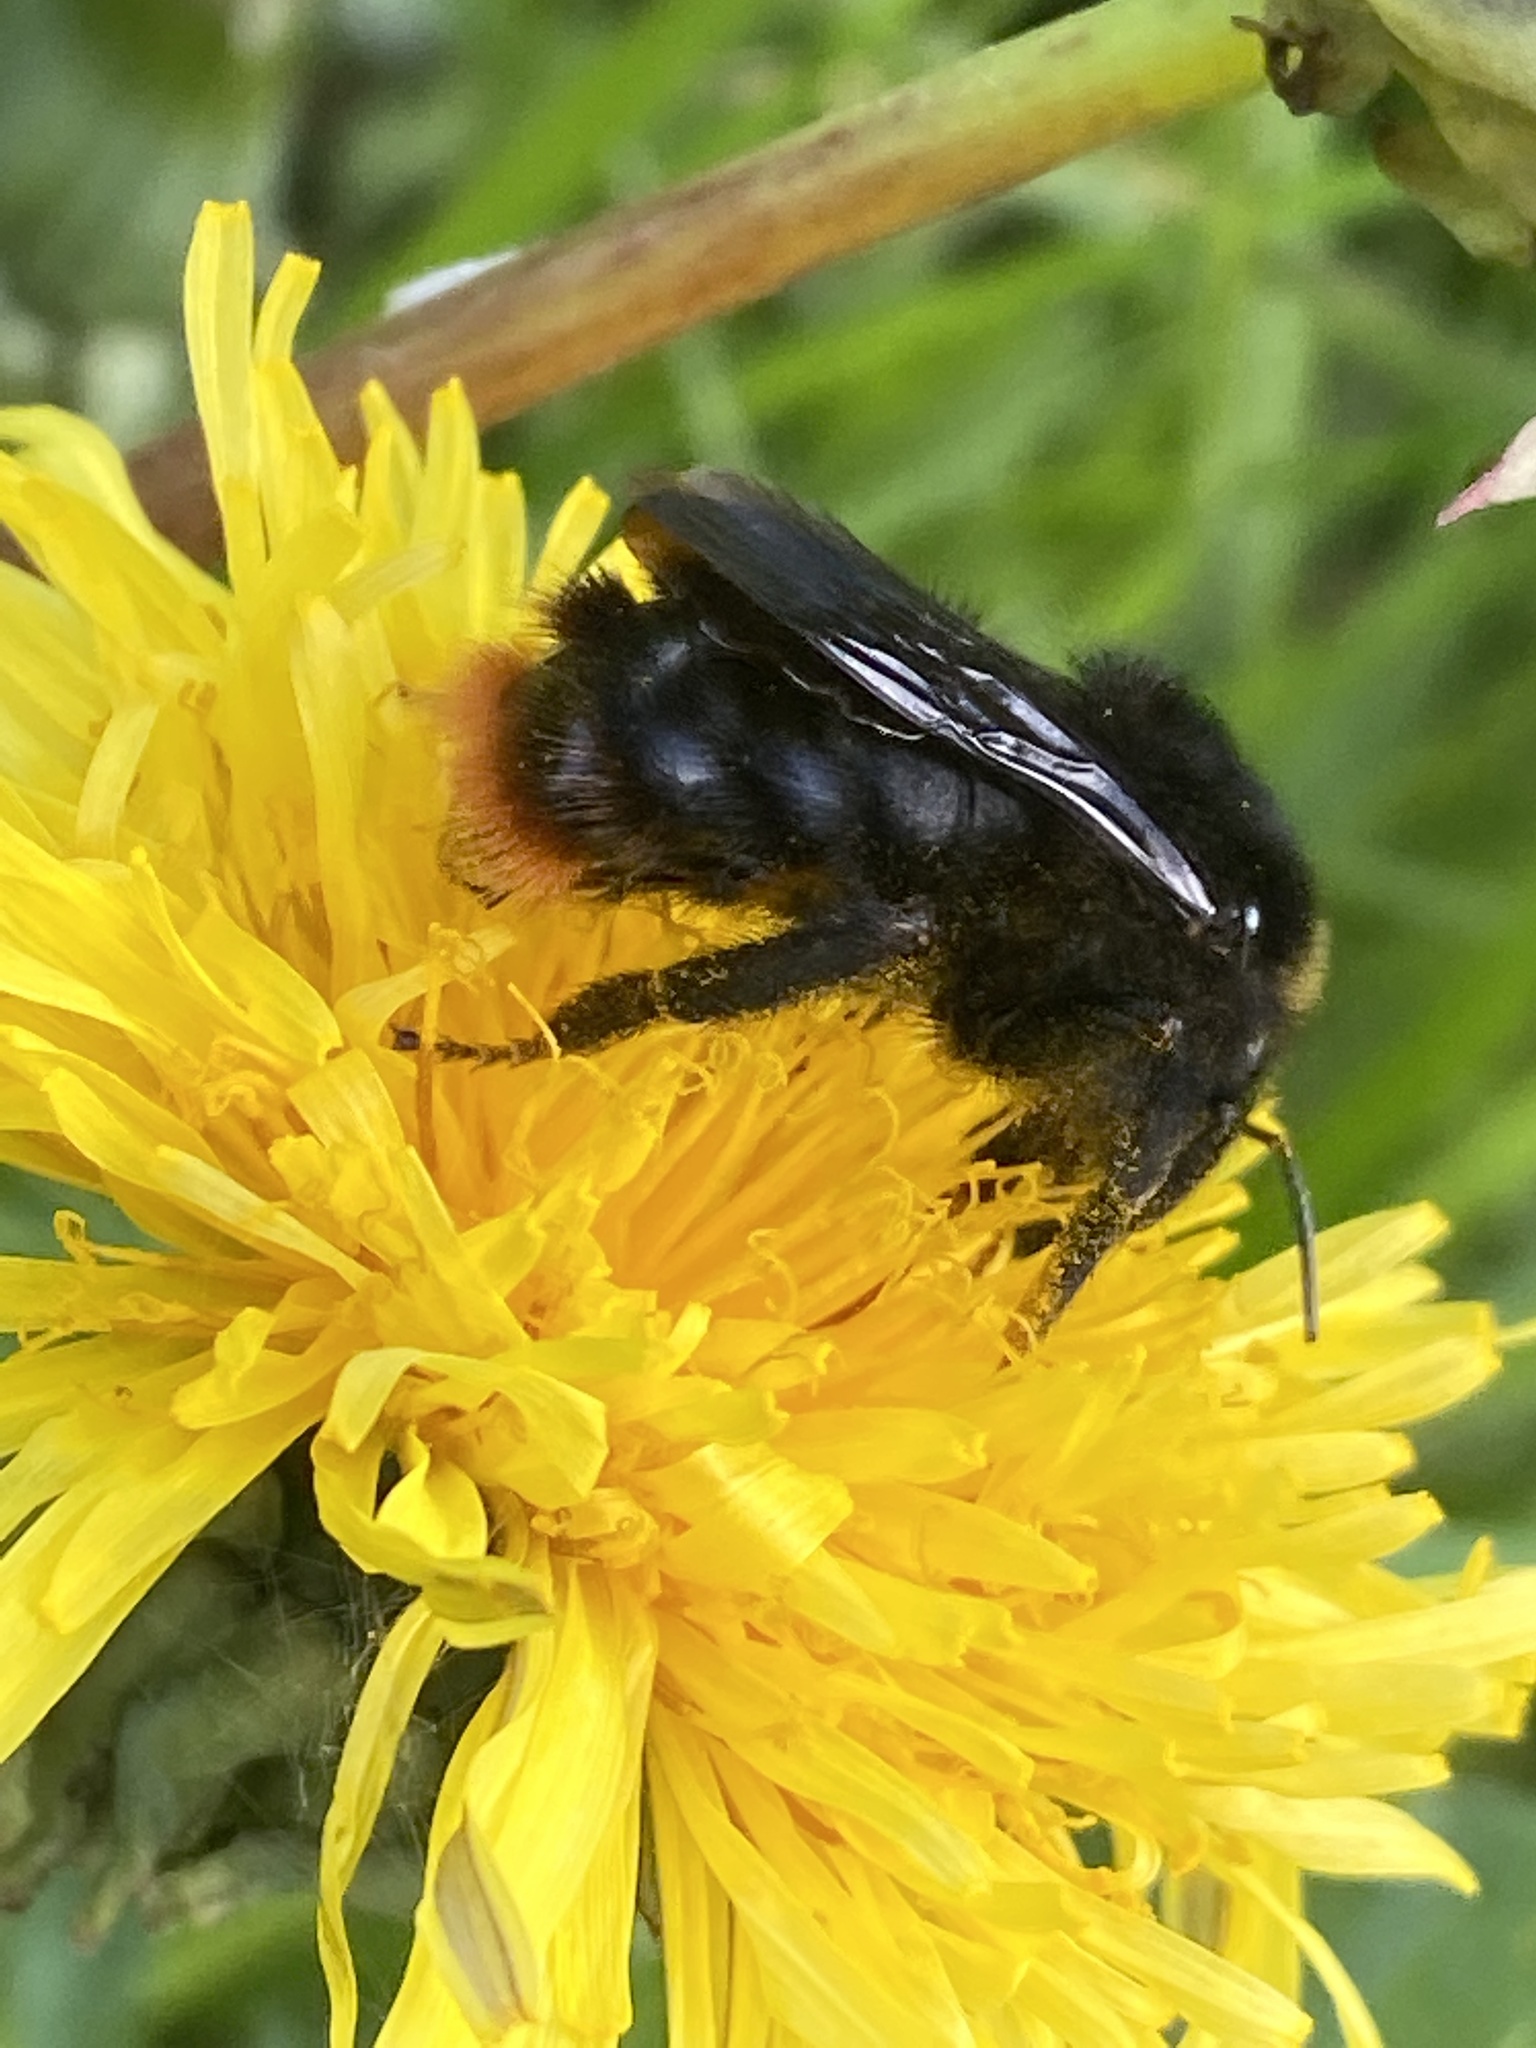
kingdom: Animalia
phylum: Arthropoda
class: Insecta
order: Hymenoptera
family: Apidae
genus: Bombus
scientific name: Bombus rupestris
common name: Hill cuckoo-bee
